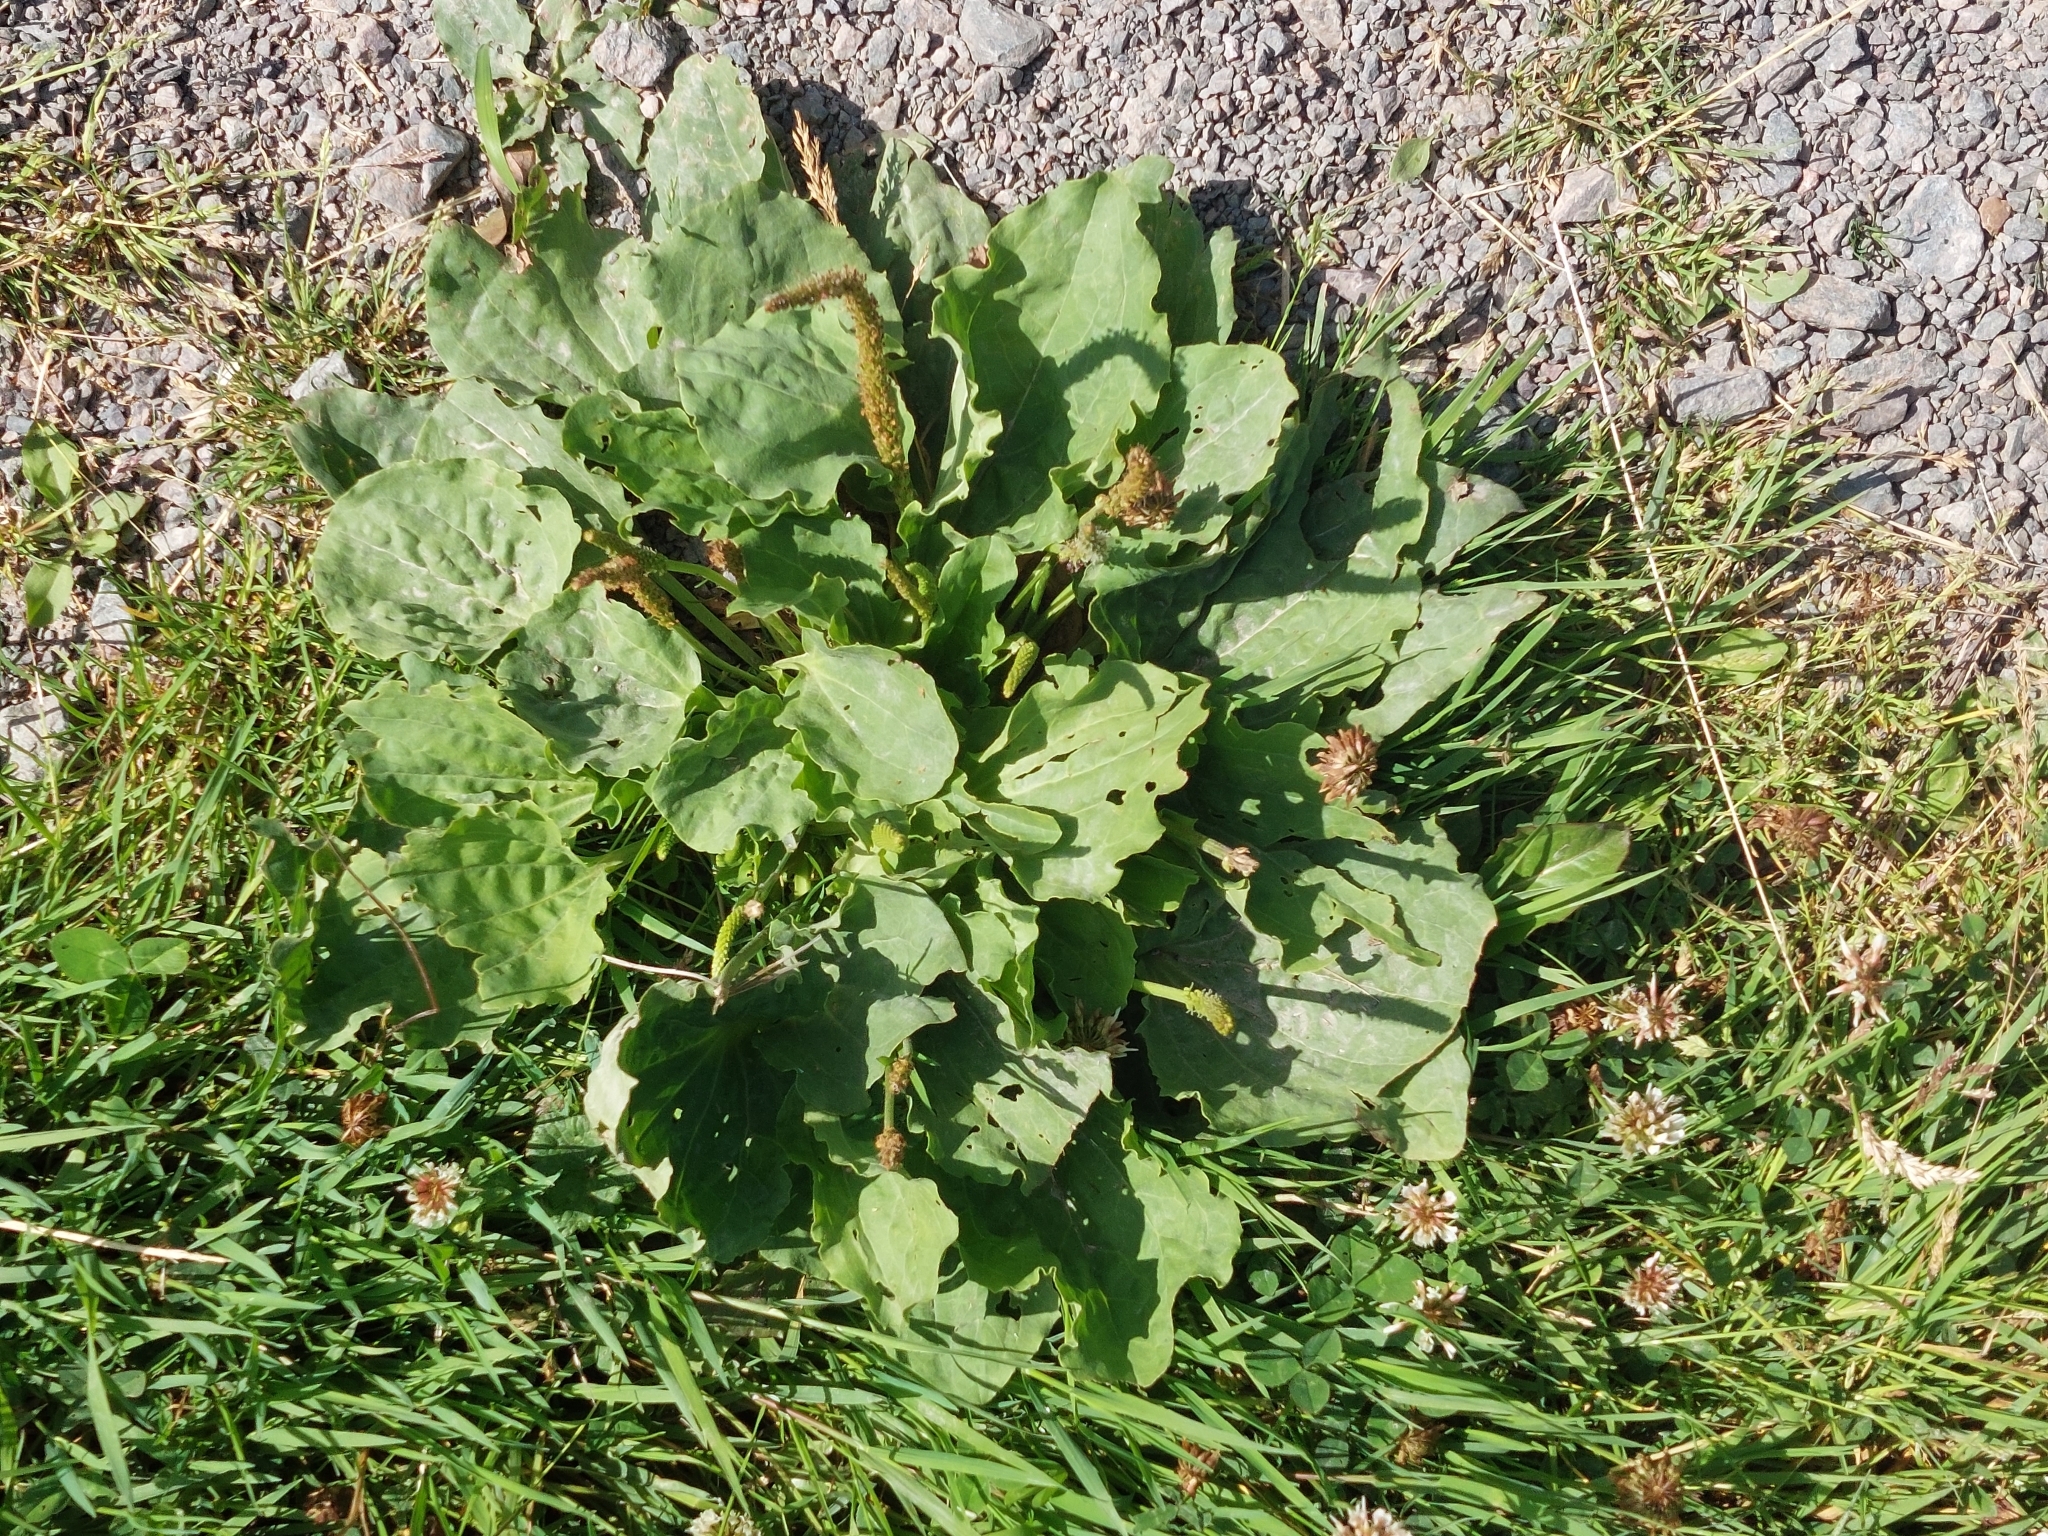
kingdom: Plantae
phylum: Tracheophyta
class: Magnoliopsida
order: Lamiales
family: Plantaginaceae
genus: Plantago
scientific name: Plantago major
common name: Common plantain
